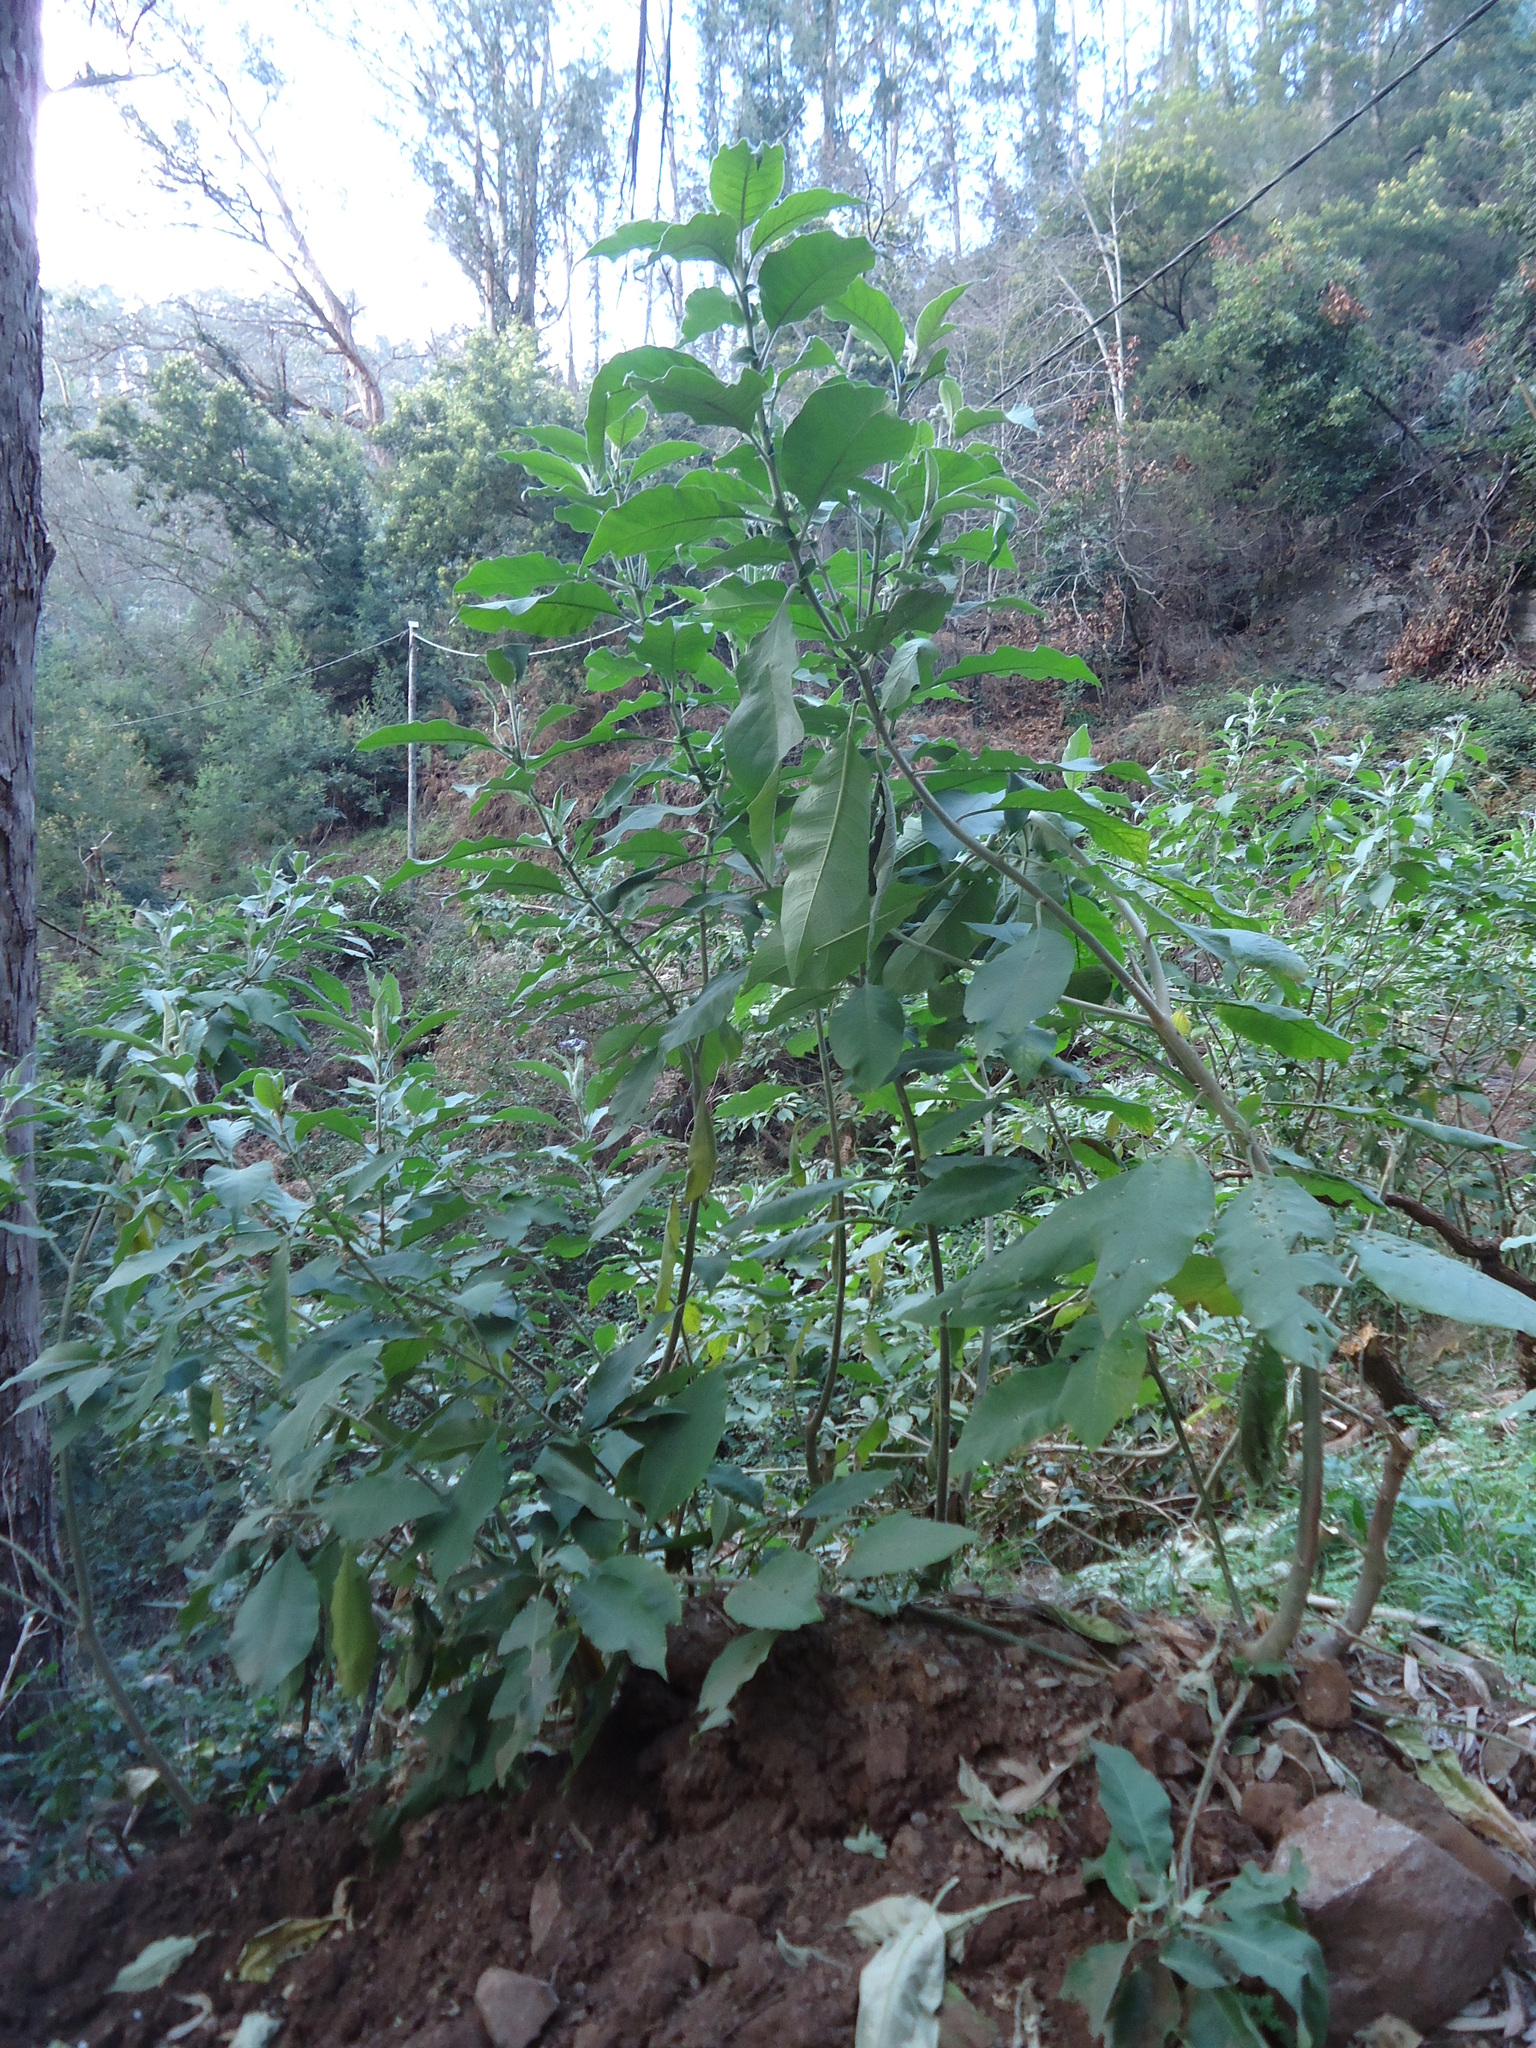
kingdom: Plantae
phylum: Tracheophyta
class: Magnoliopsida
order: Solanales
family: Solanaceae
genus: Solanum
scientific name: Solanum mauritianum
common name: Earleaf nightshade
